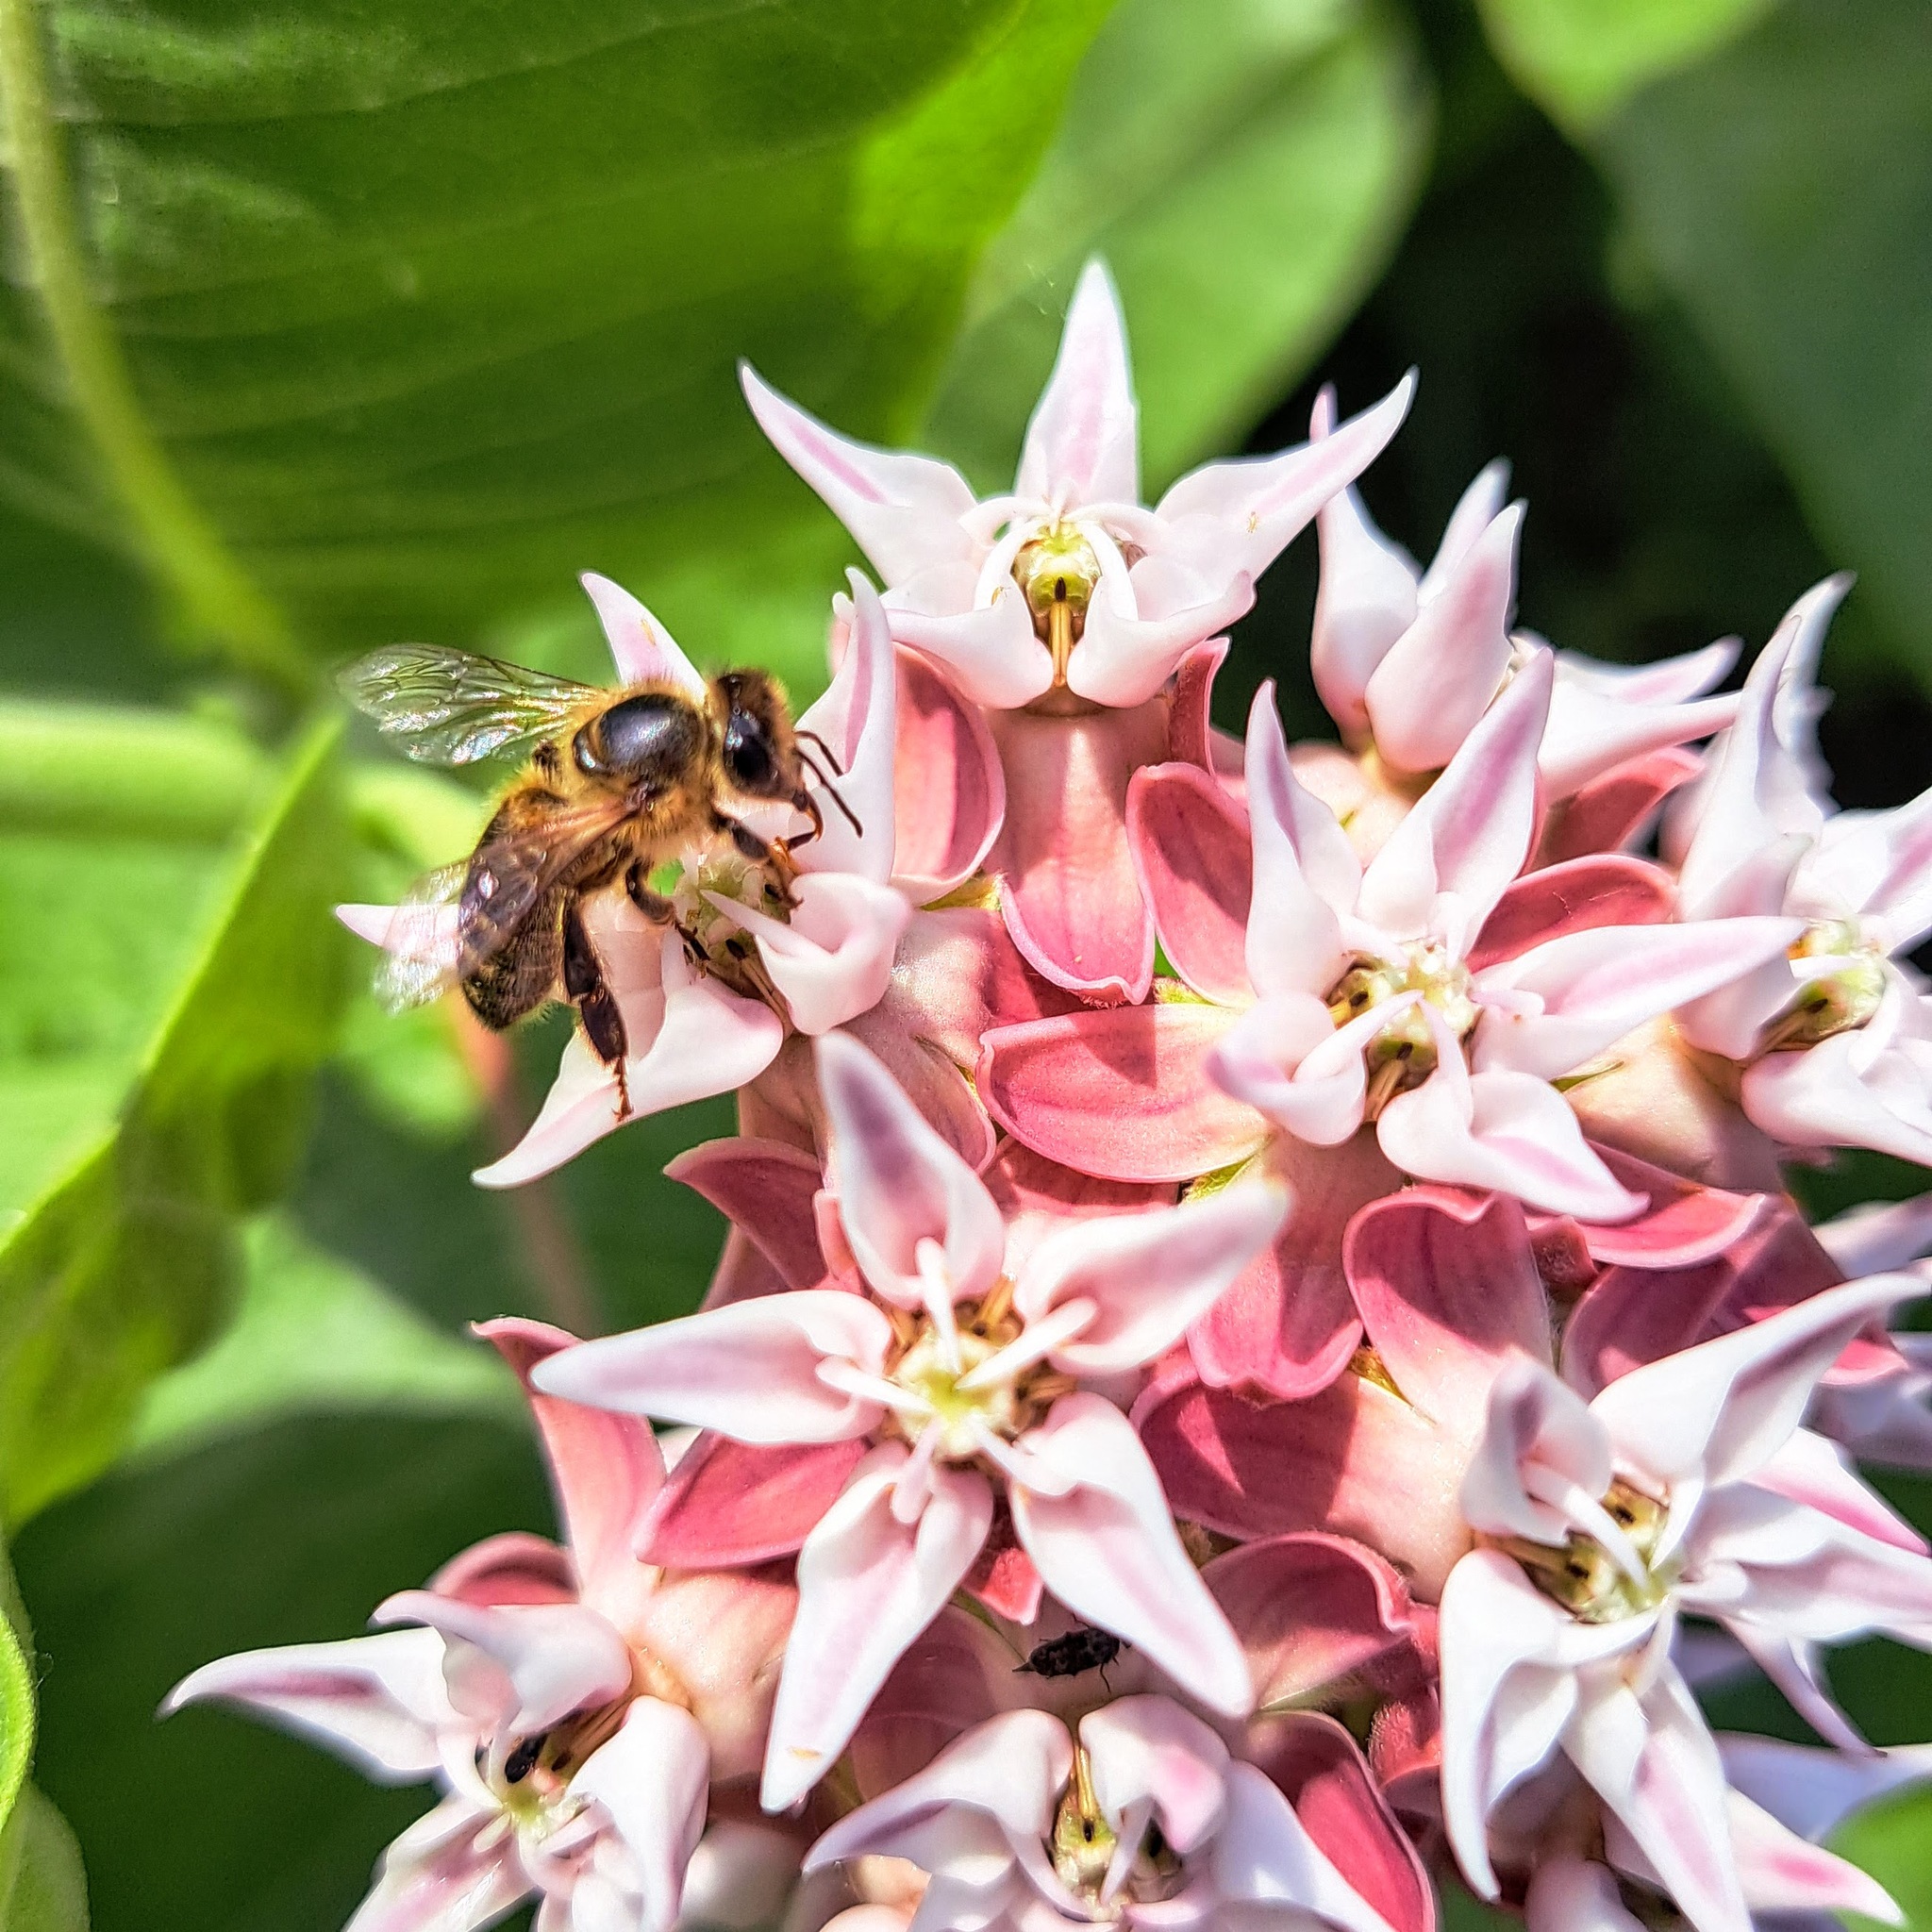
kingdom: Animalia
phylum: Arthropoda
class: Insecta
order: Hymenoptera
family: Apidae
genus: Apis
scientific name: Apis mellifera
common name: Honey bee
